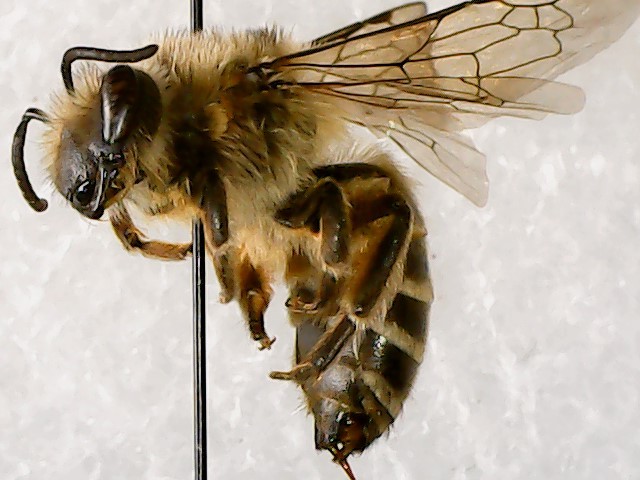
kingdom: Animalia
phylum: Arthropoda
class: Insecta
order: Hymenoptera
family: Colletidae
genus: Colletes
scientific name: Colletes inaequalis
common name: Unequal cellophane bee
